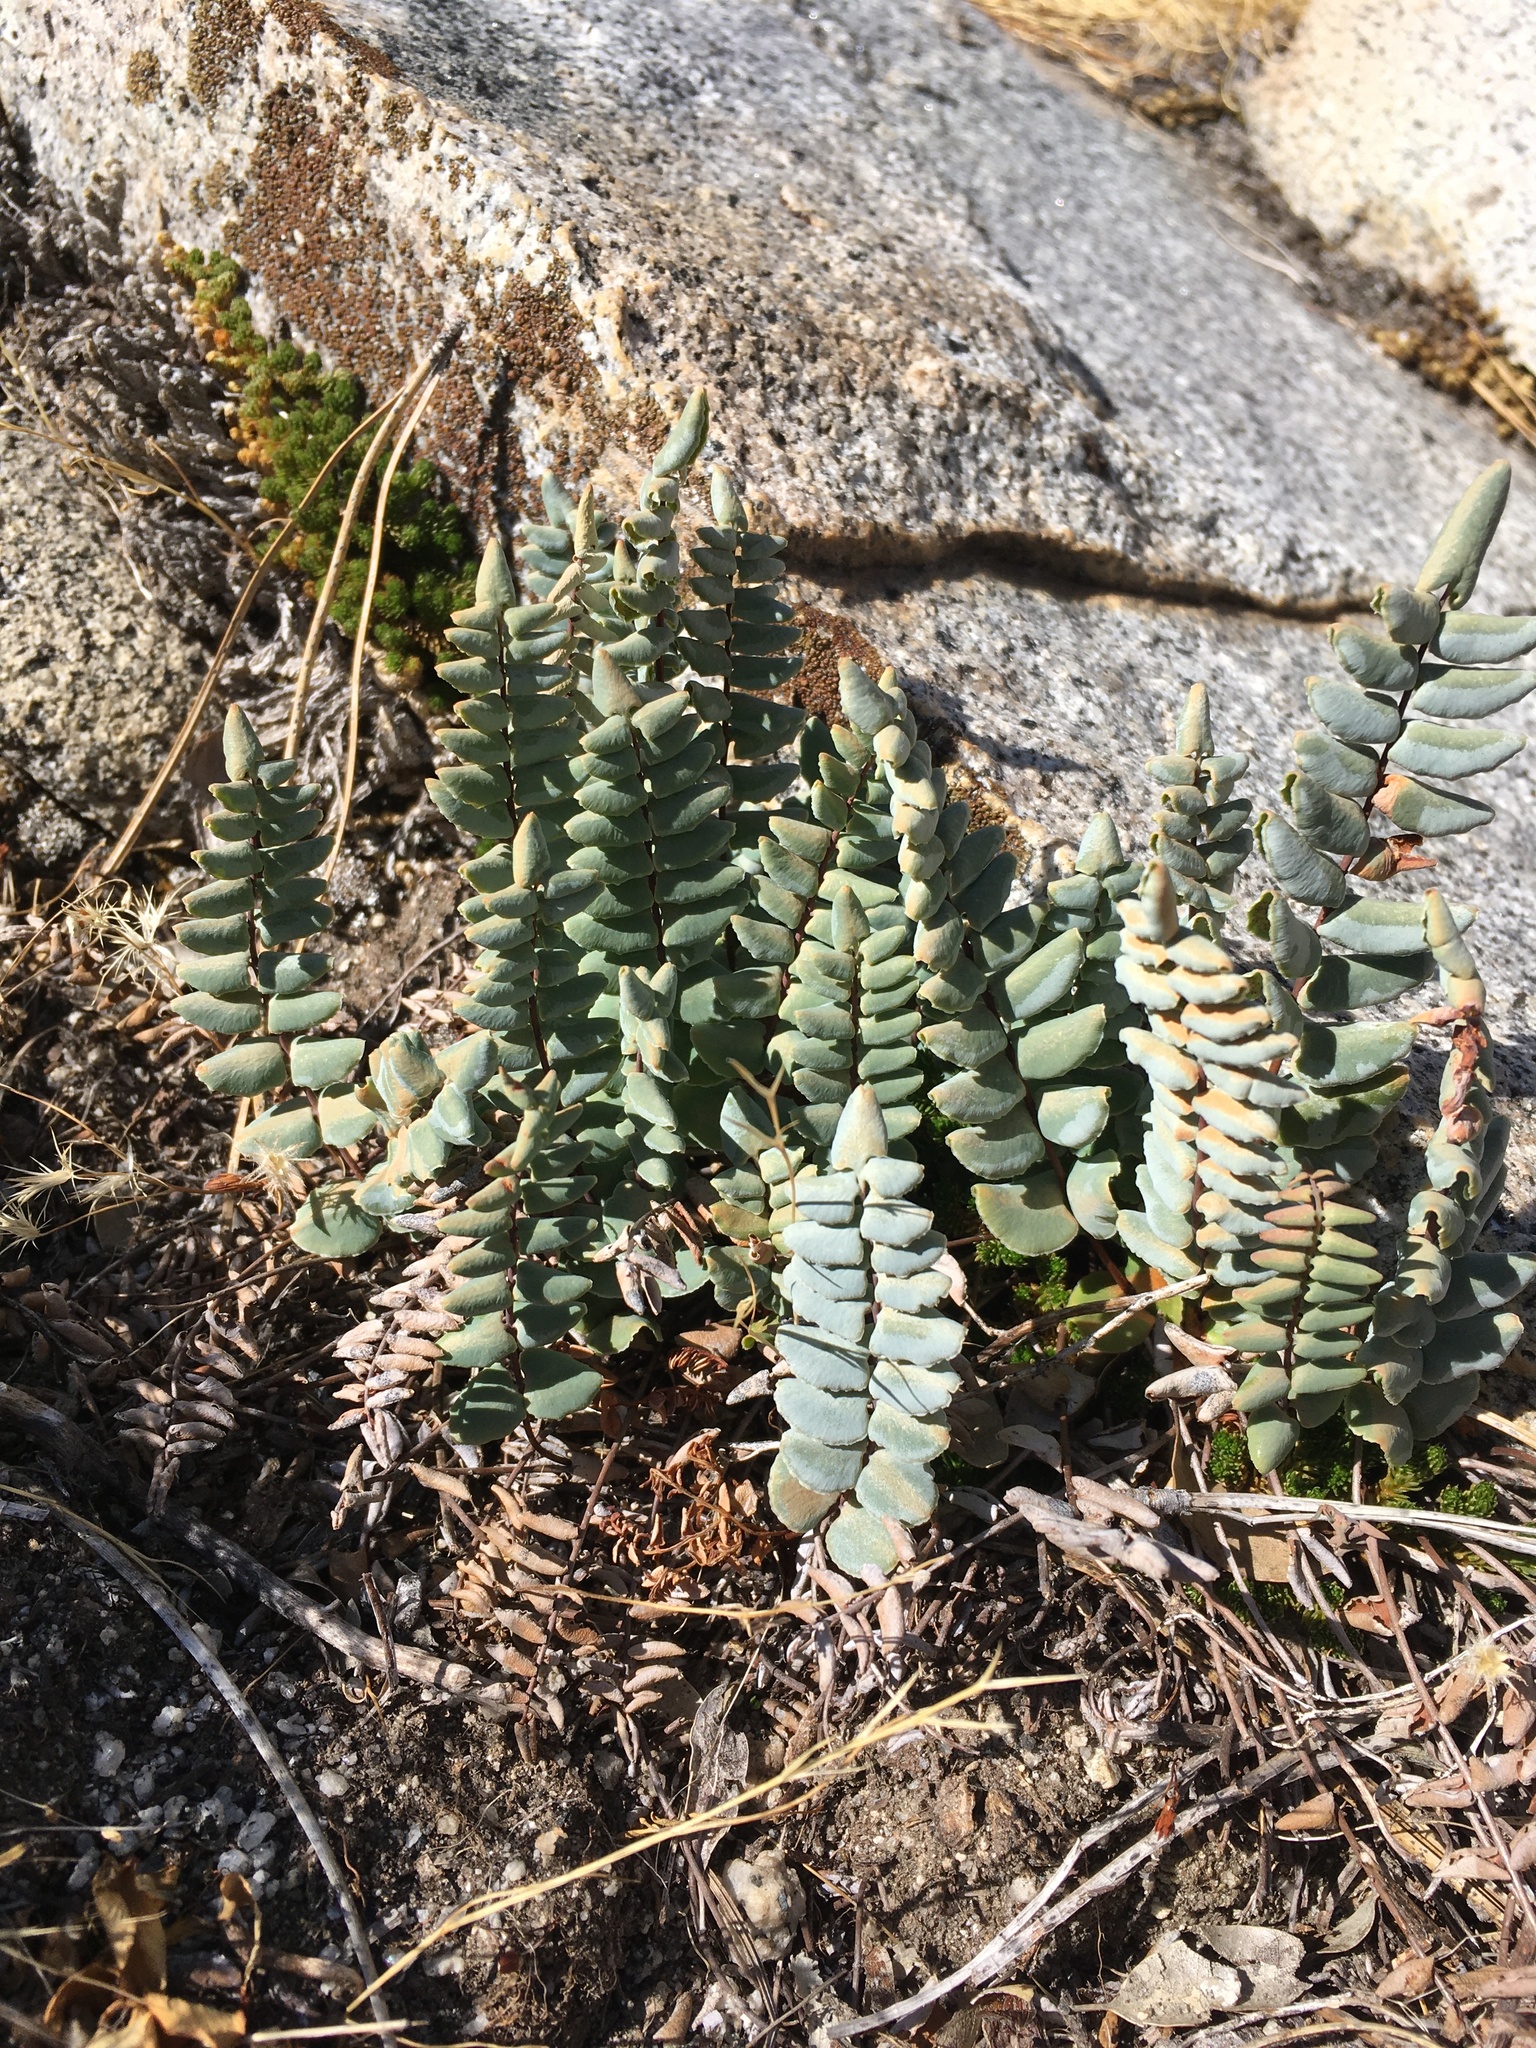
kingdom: Plantae
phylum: Tracheophyta
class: Polypodiopsida
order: Polypodiales
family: Pteridaceae
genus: Pellaea
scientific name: Pellaea bridgesii
